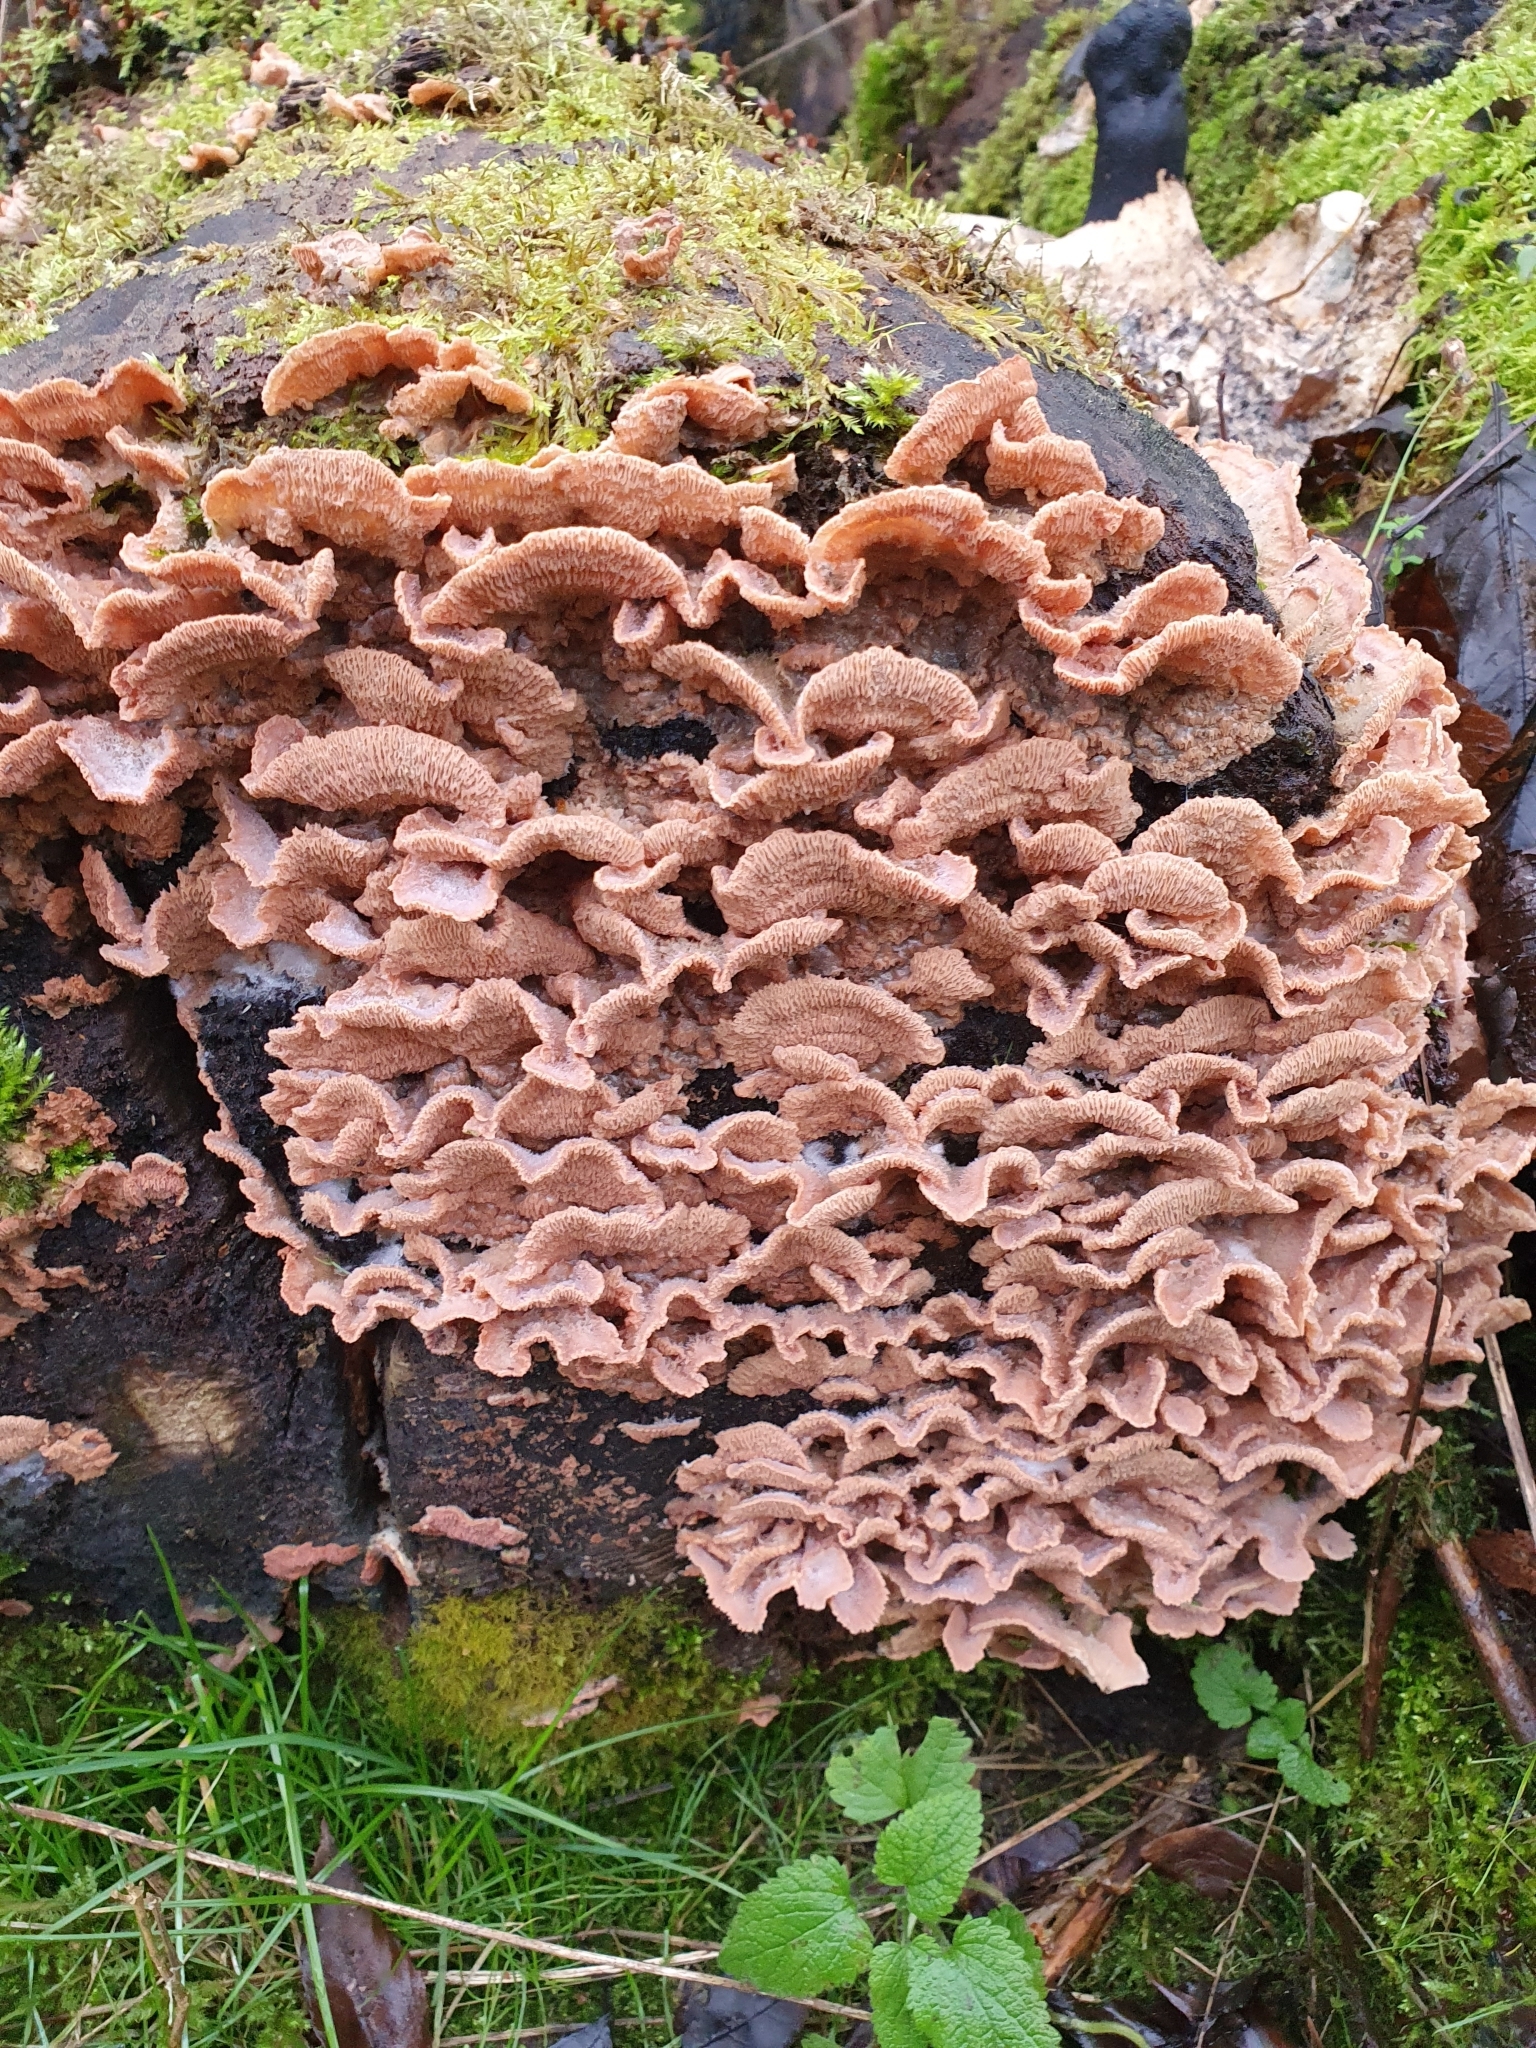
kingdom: Fungi
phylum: Basidiomycota
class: Agaricomycetes
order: Polyporales
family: Meruliaceae
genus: Phlebia
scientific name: Phlebia tremellosa
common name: Jelly rot
